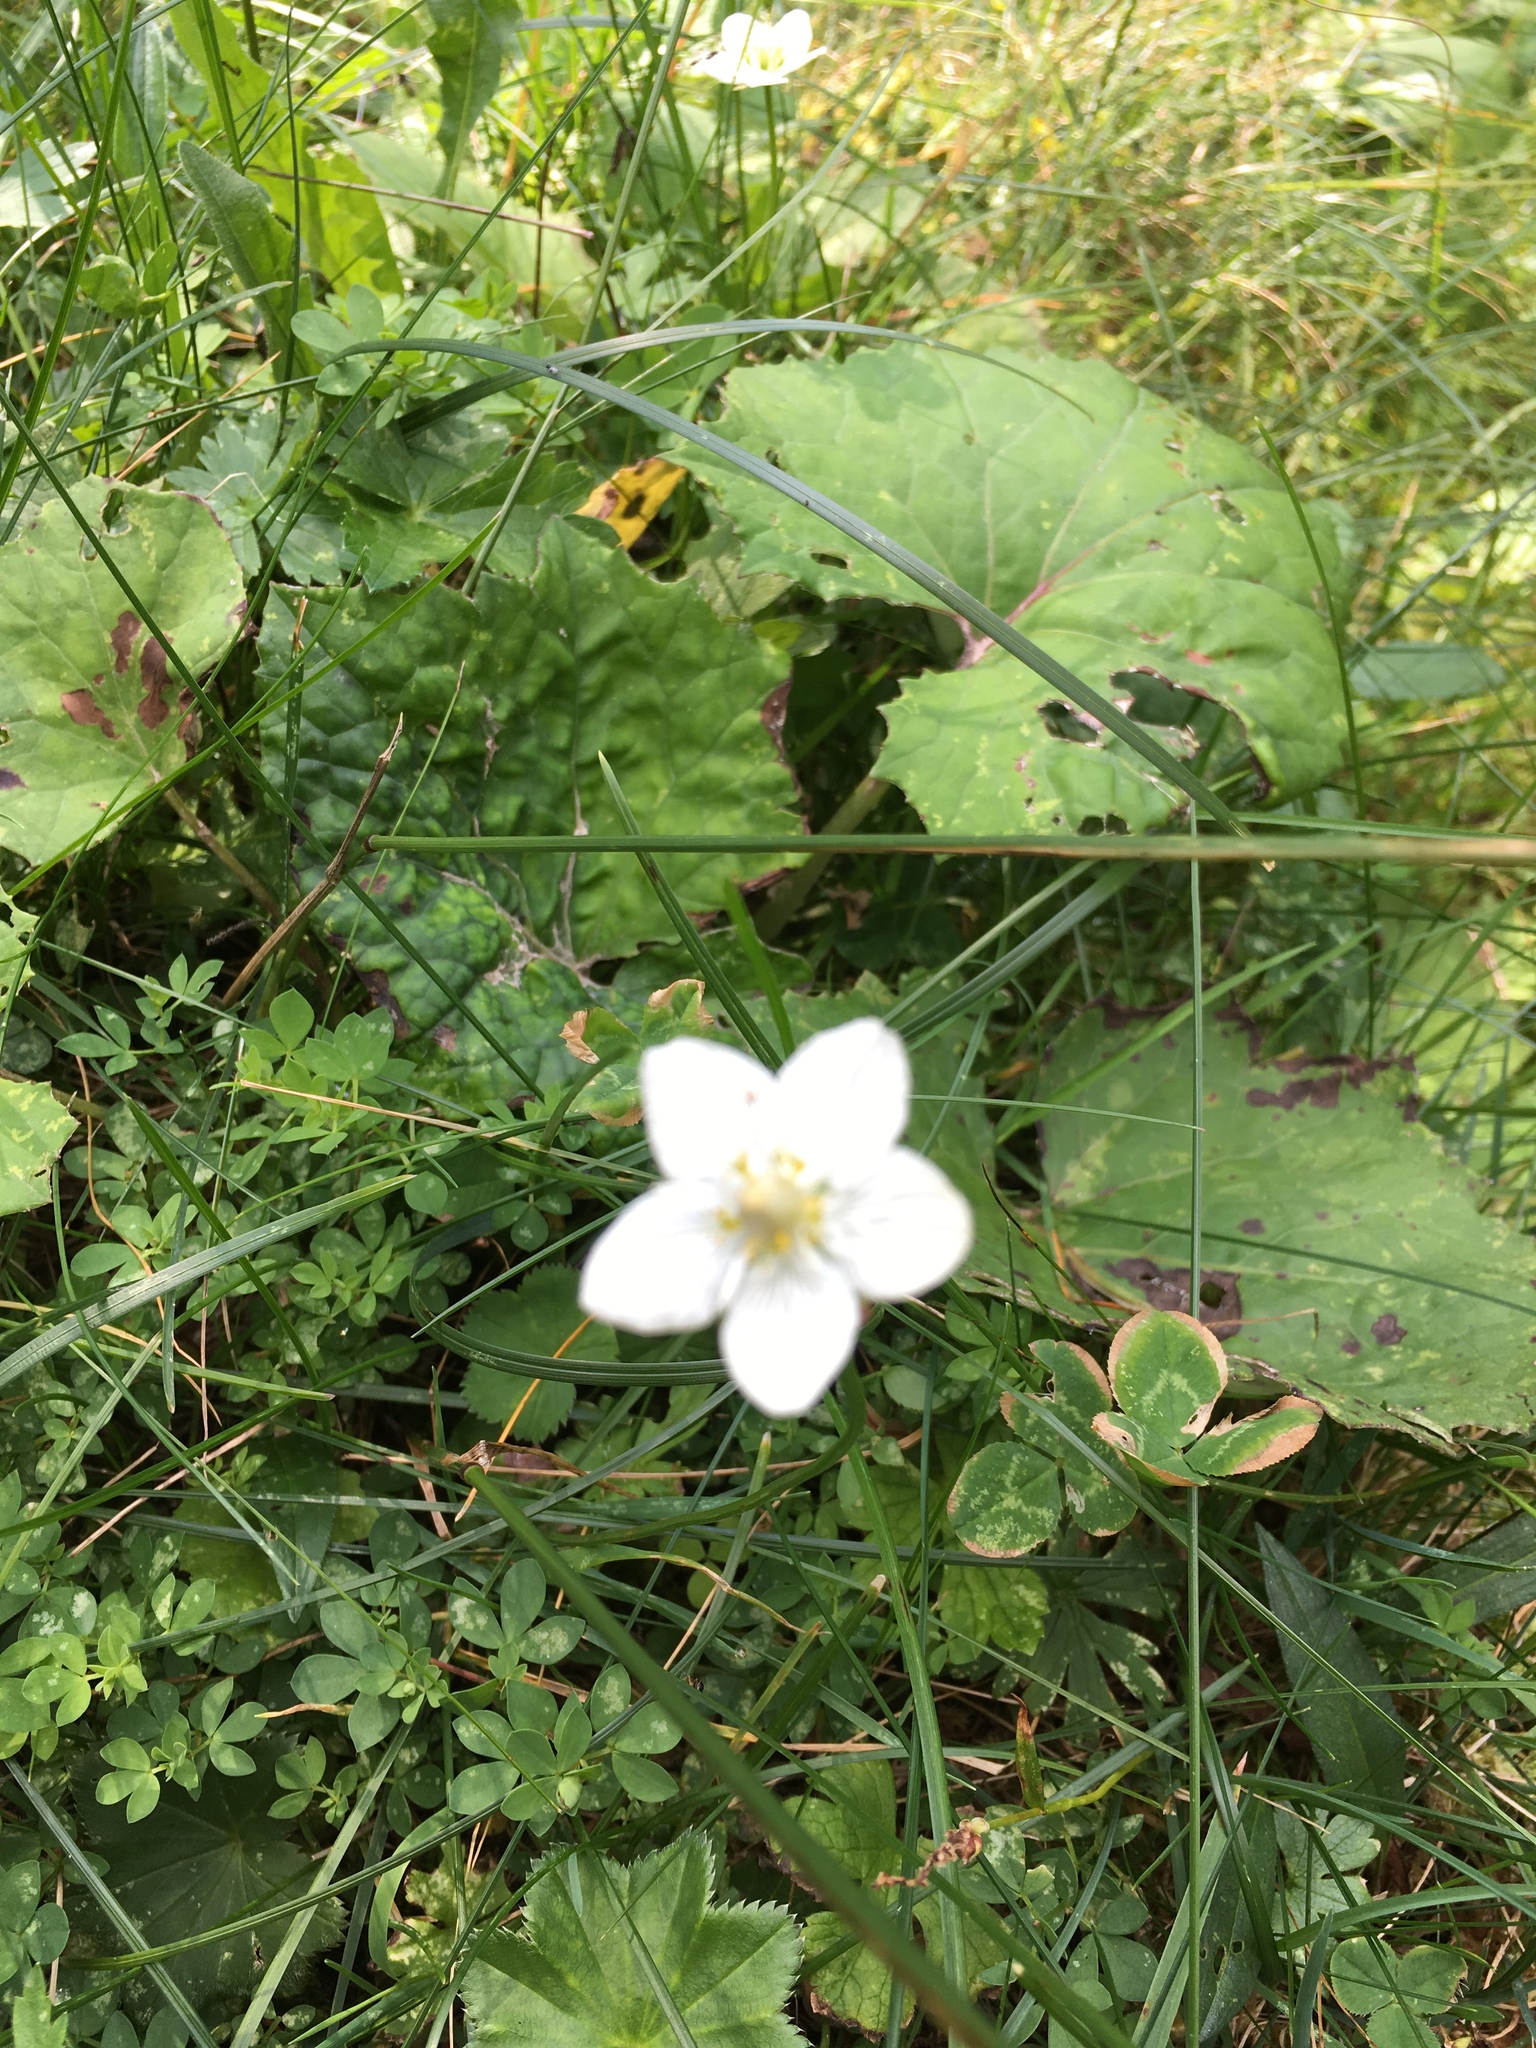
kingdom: Plantae
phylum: Tracheophyta
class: Magnoliopsida
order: Celastrales
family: Parnassiaceae
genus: Parnassia
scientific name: Parnassia palustris
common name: Grass-of-parnassus
